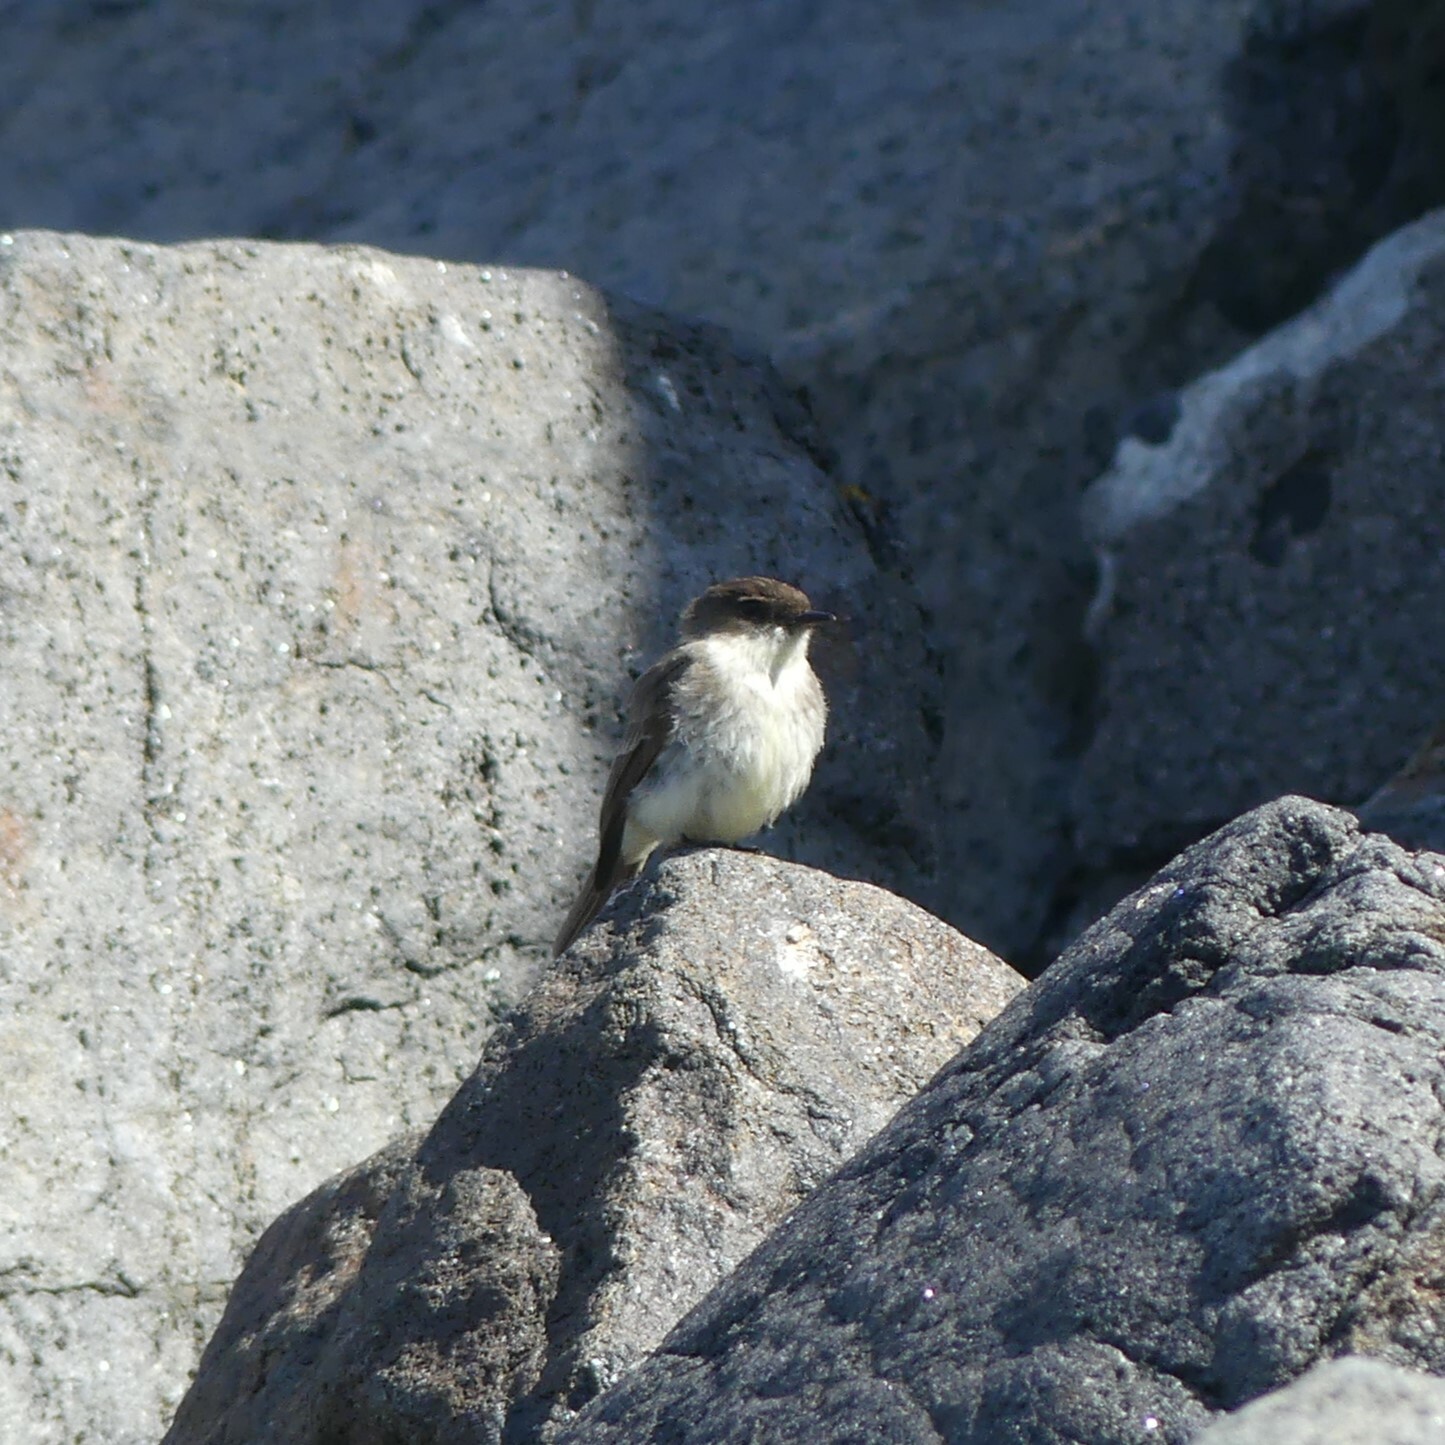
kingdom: Animalia
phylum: Chordata
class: Aves
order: Passeriformes
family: Tyrannidae
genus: Sayornis
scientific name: Sayornis phoebe
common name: Eastern phoebe
